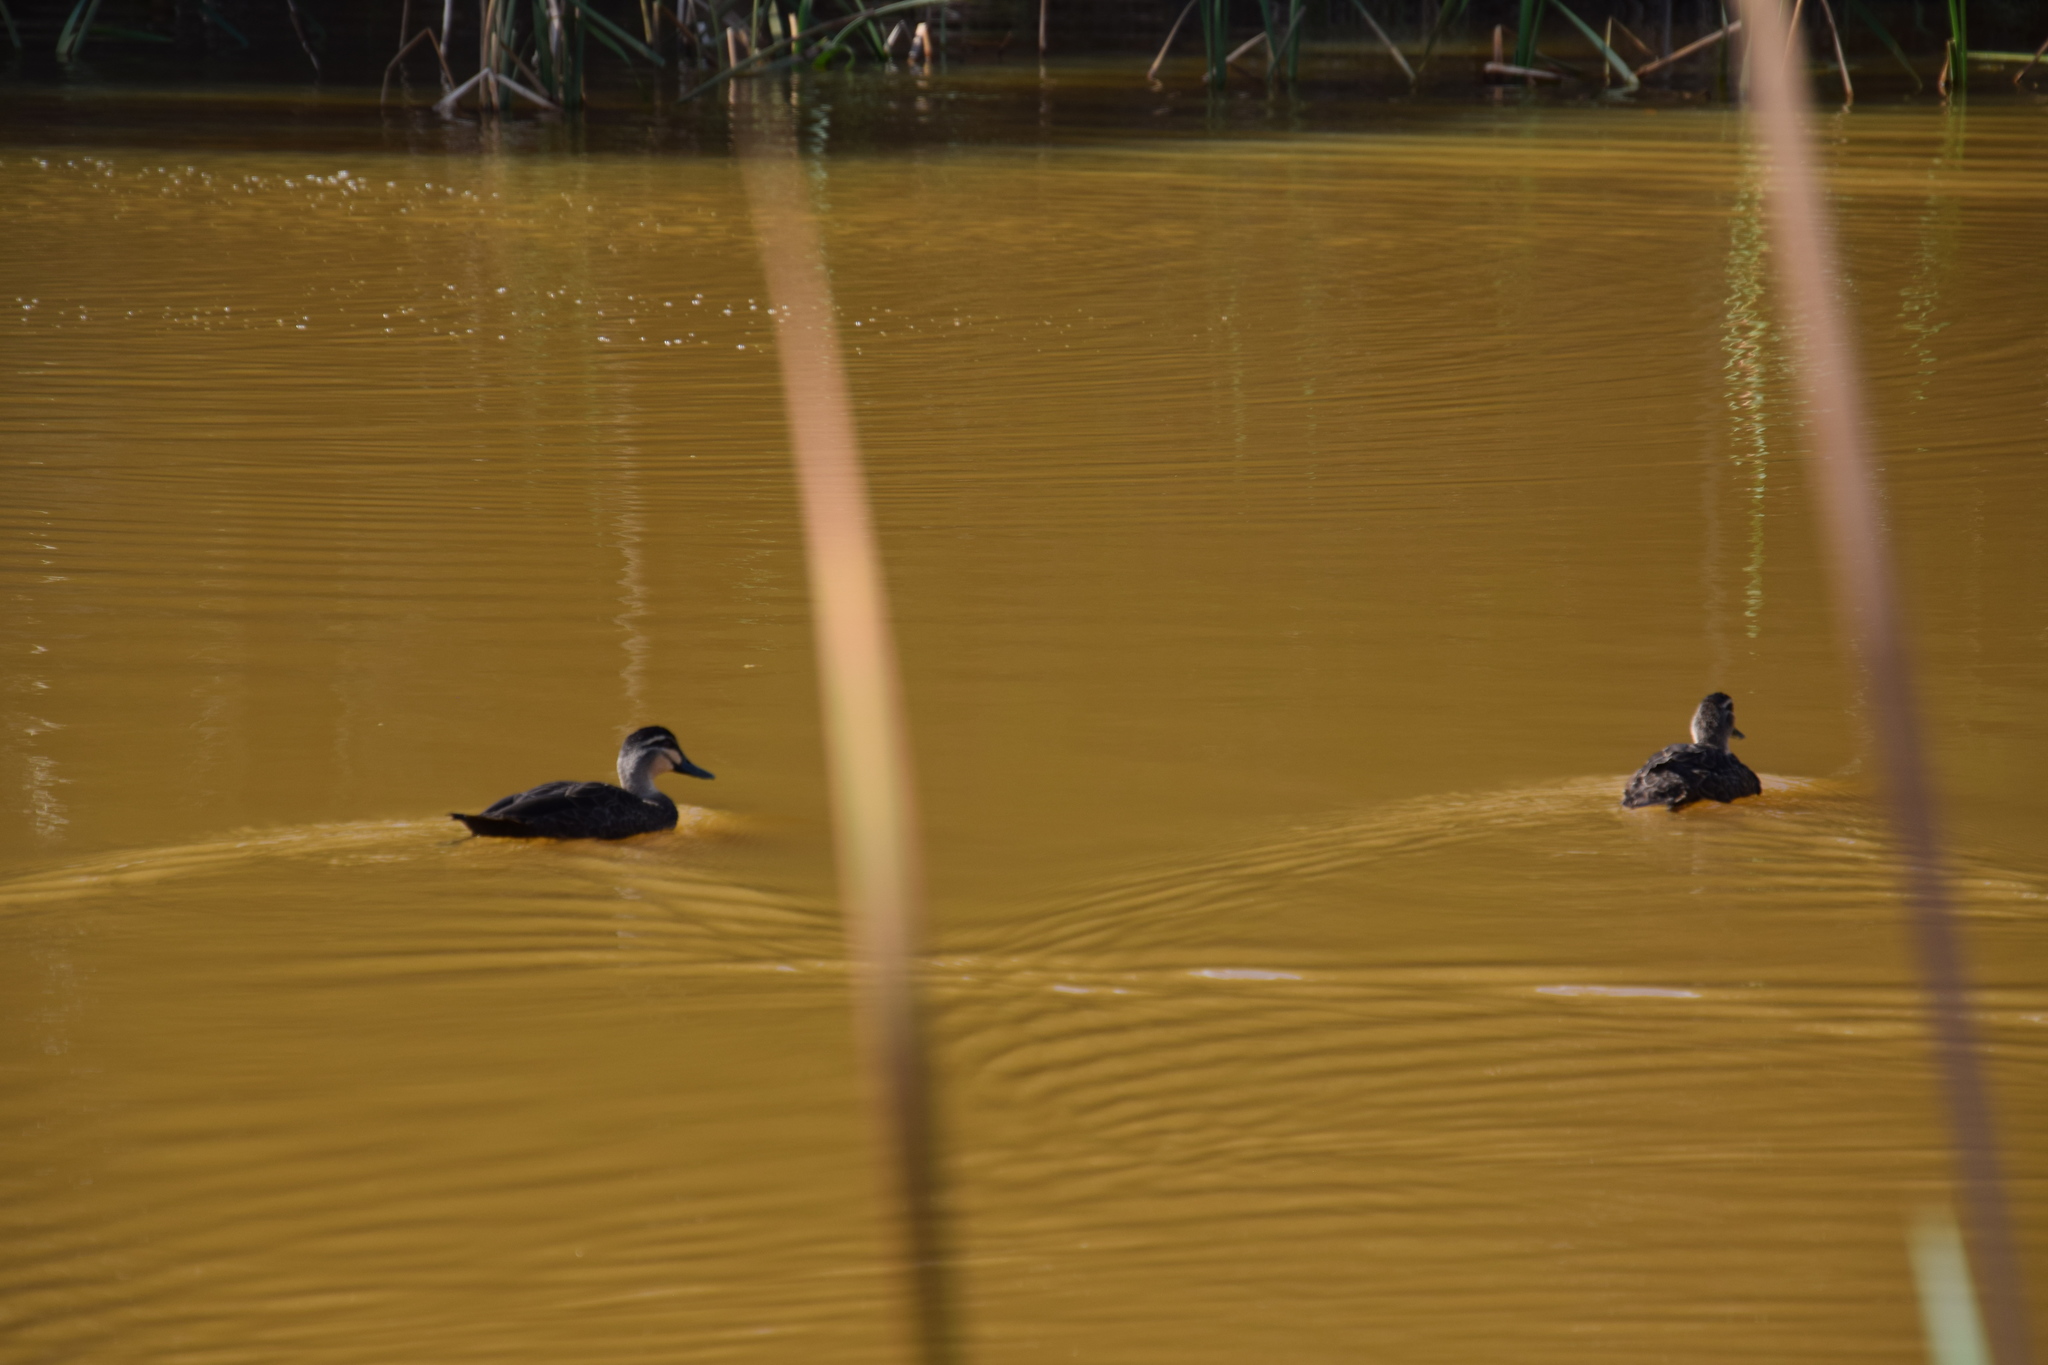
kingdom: Animalia
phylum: Chordata
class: Aves
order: Anseriformes
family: Anatidae
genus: Anas
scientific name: Anas superciliosa
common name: Pacific black duck
